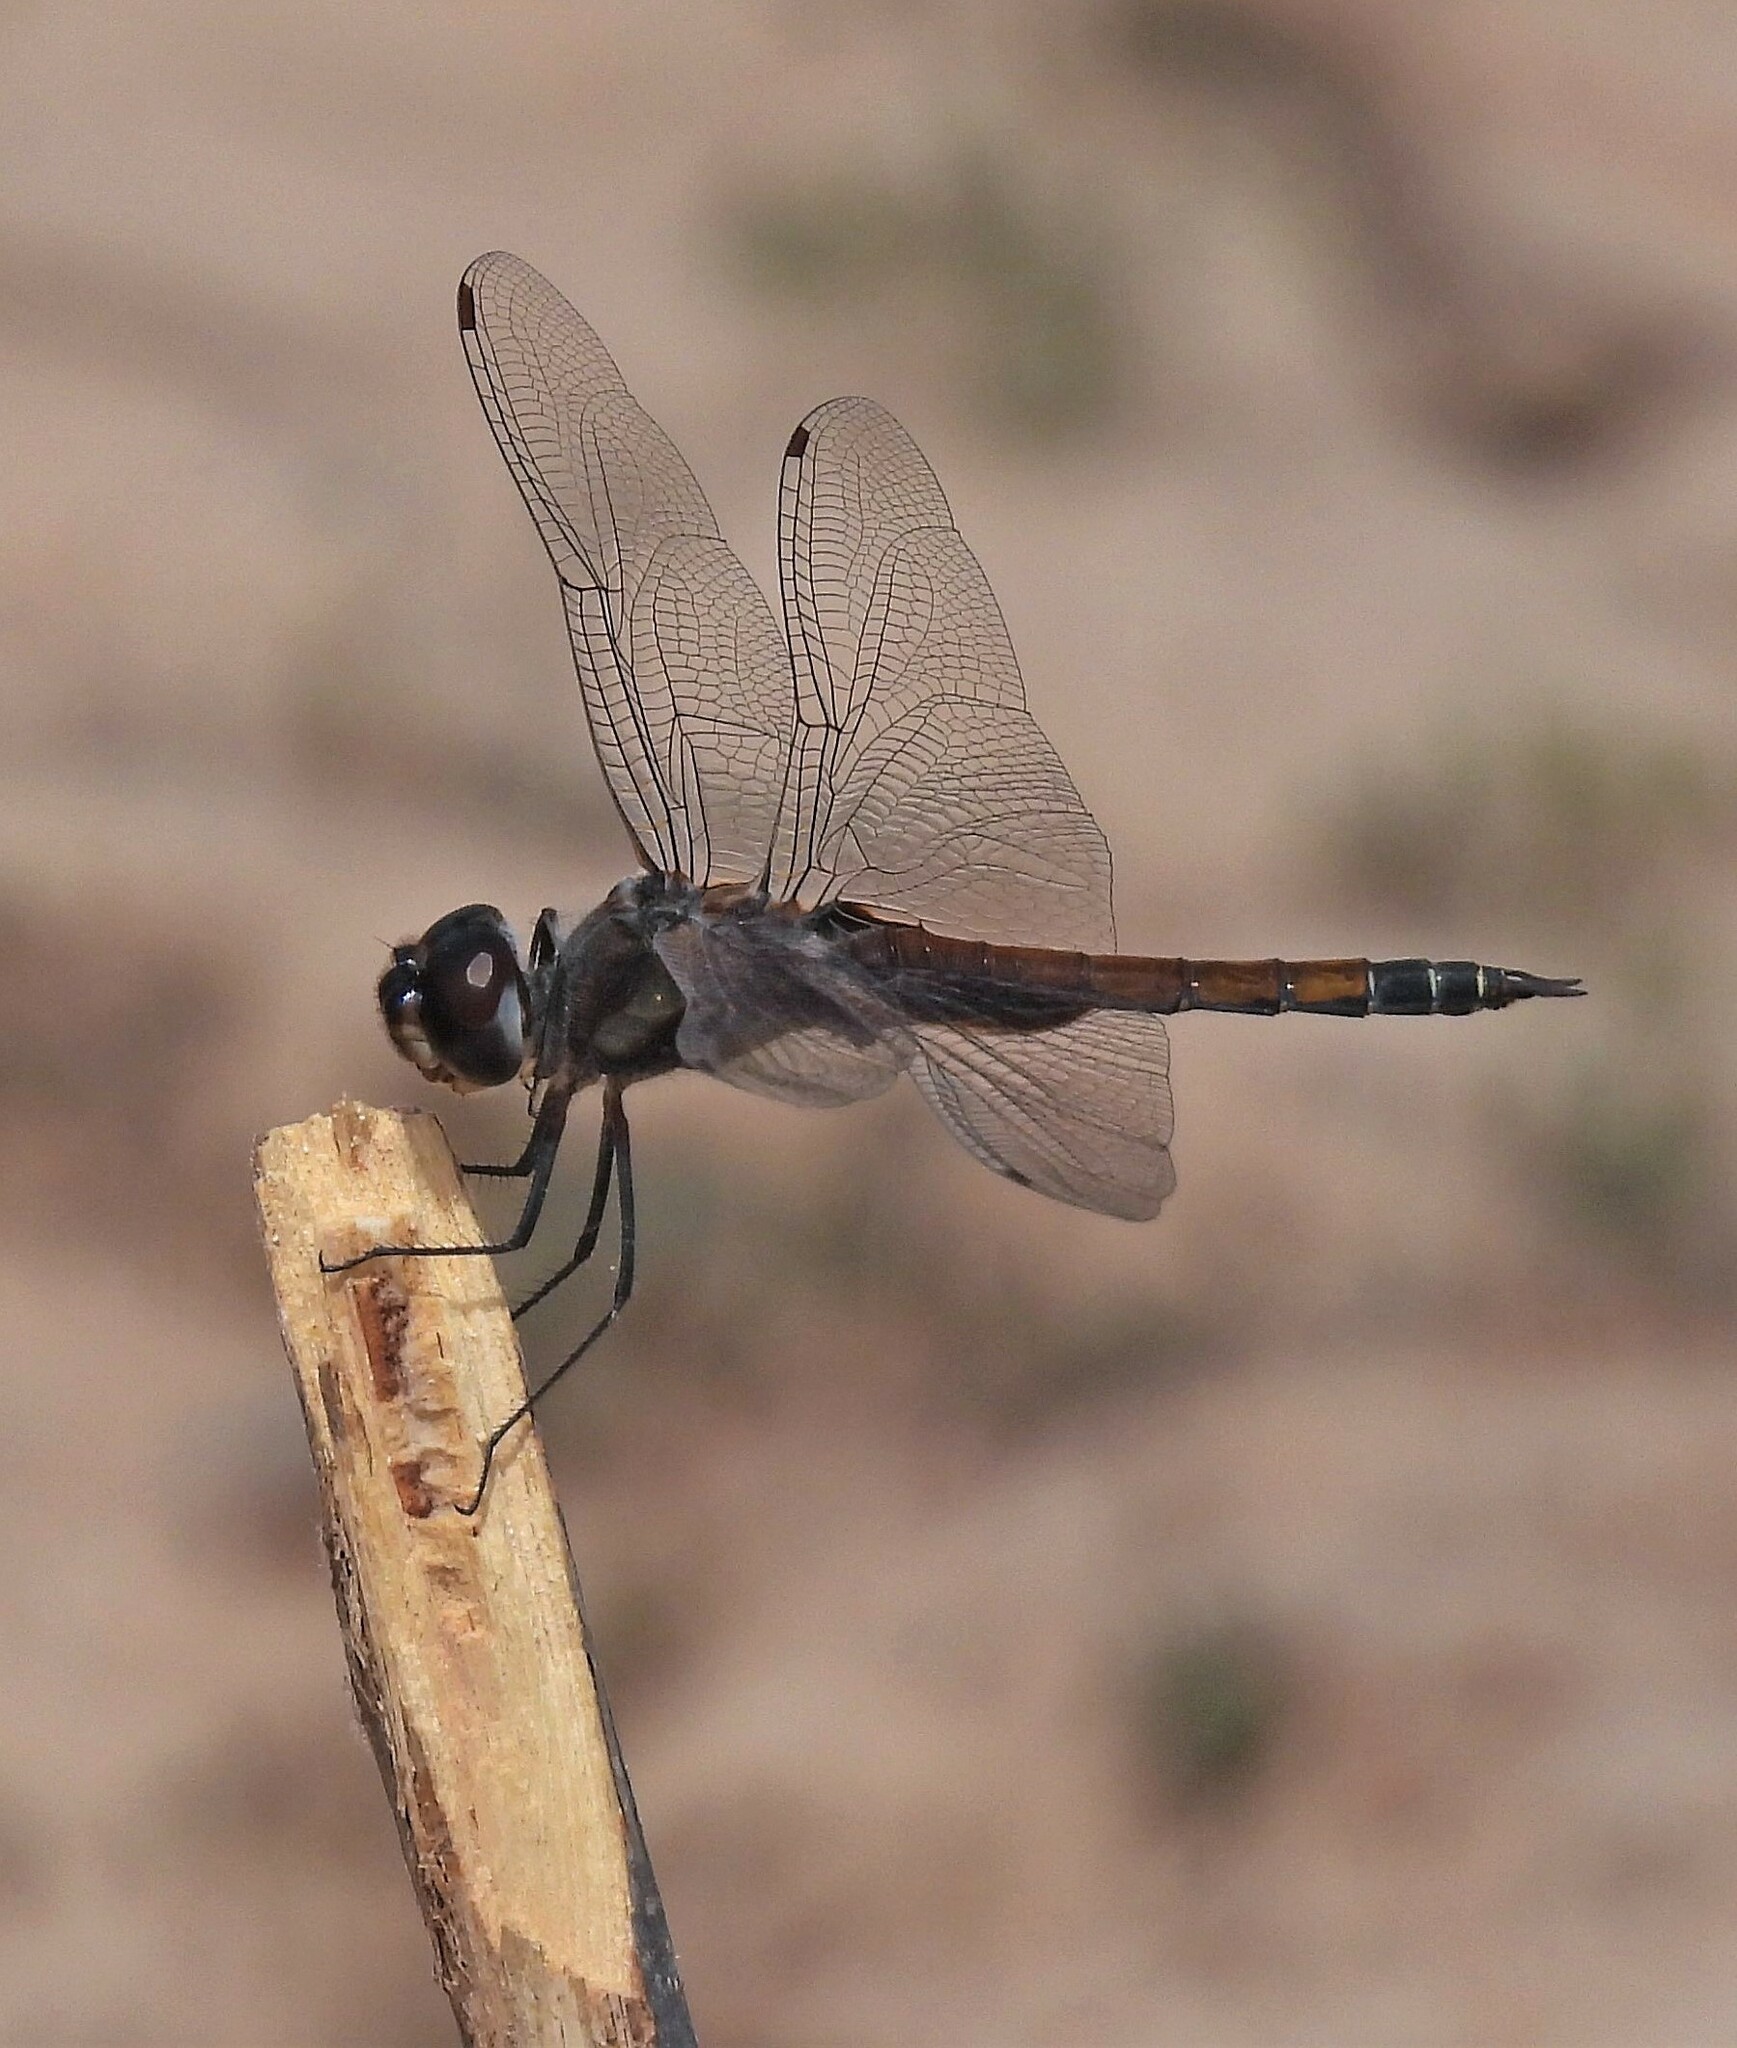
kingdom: Animalia
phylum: Arthropoda
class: Insecta
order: Odonata
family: Libellulidae
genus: Tramea
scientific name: Tramea cophysa
